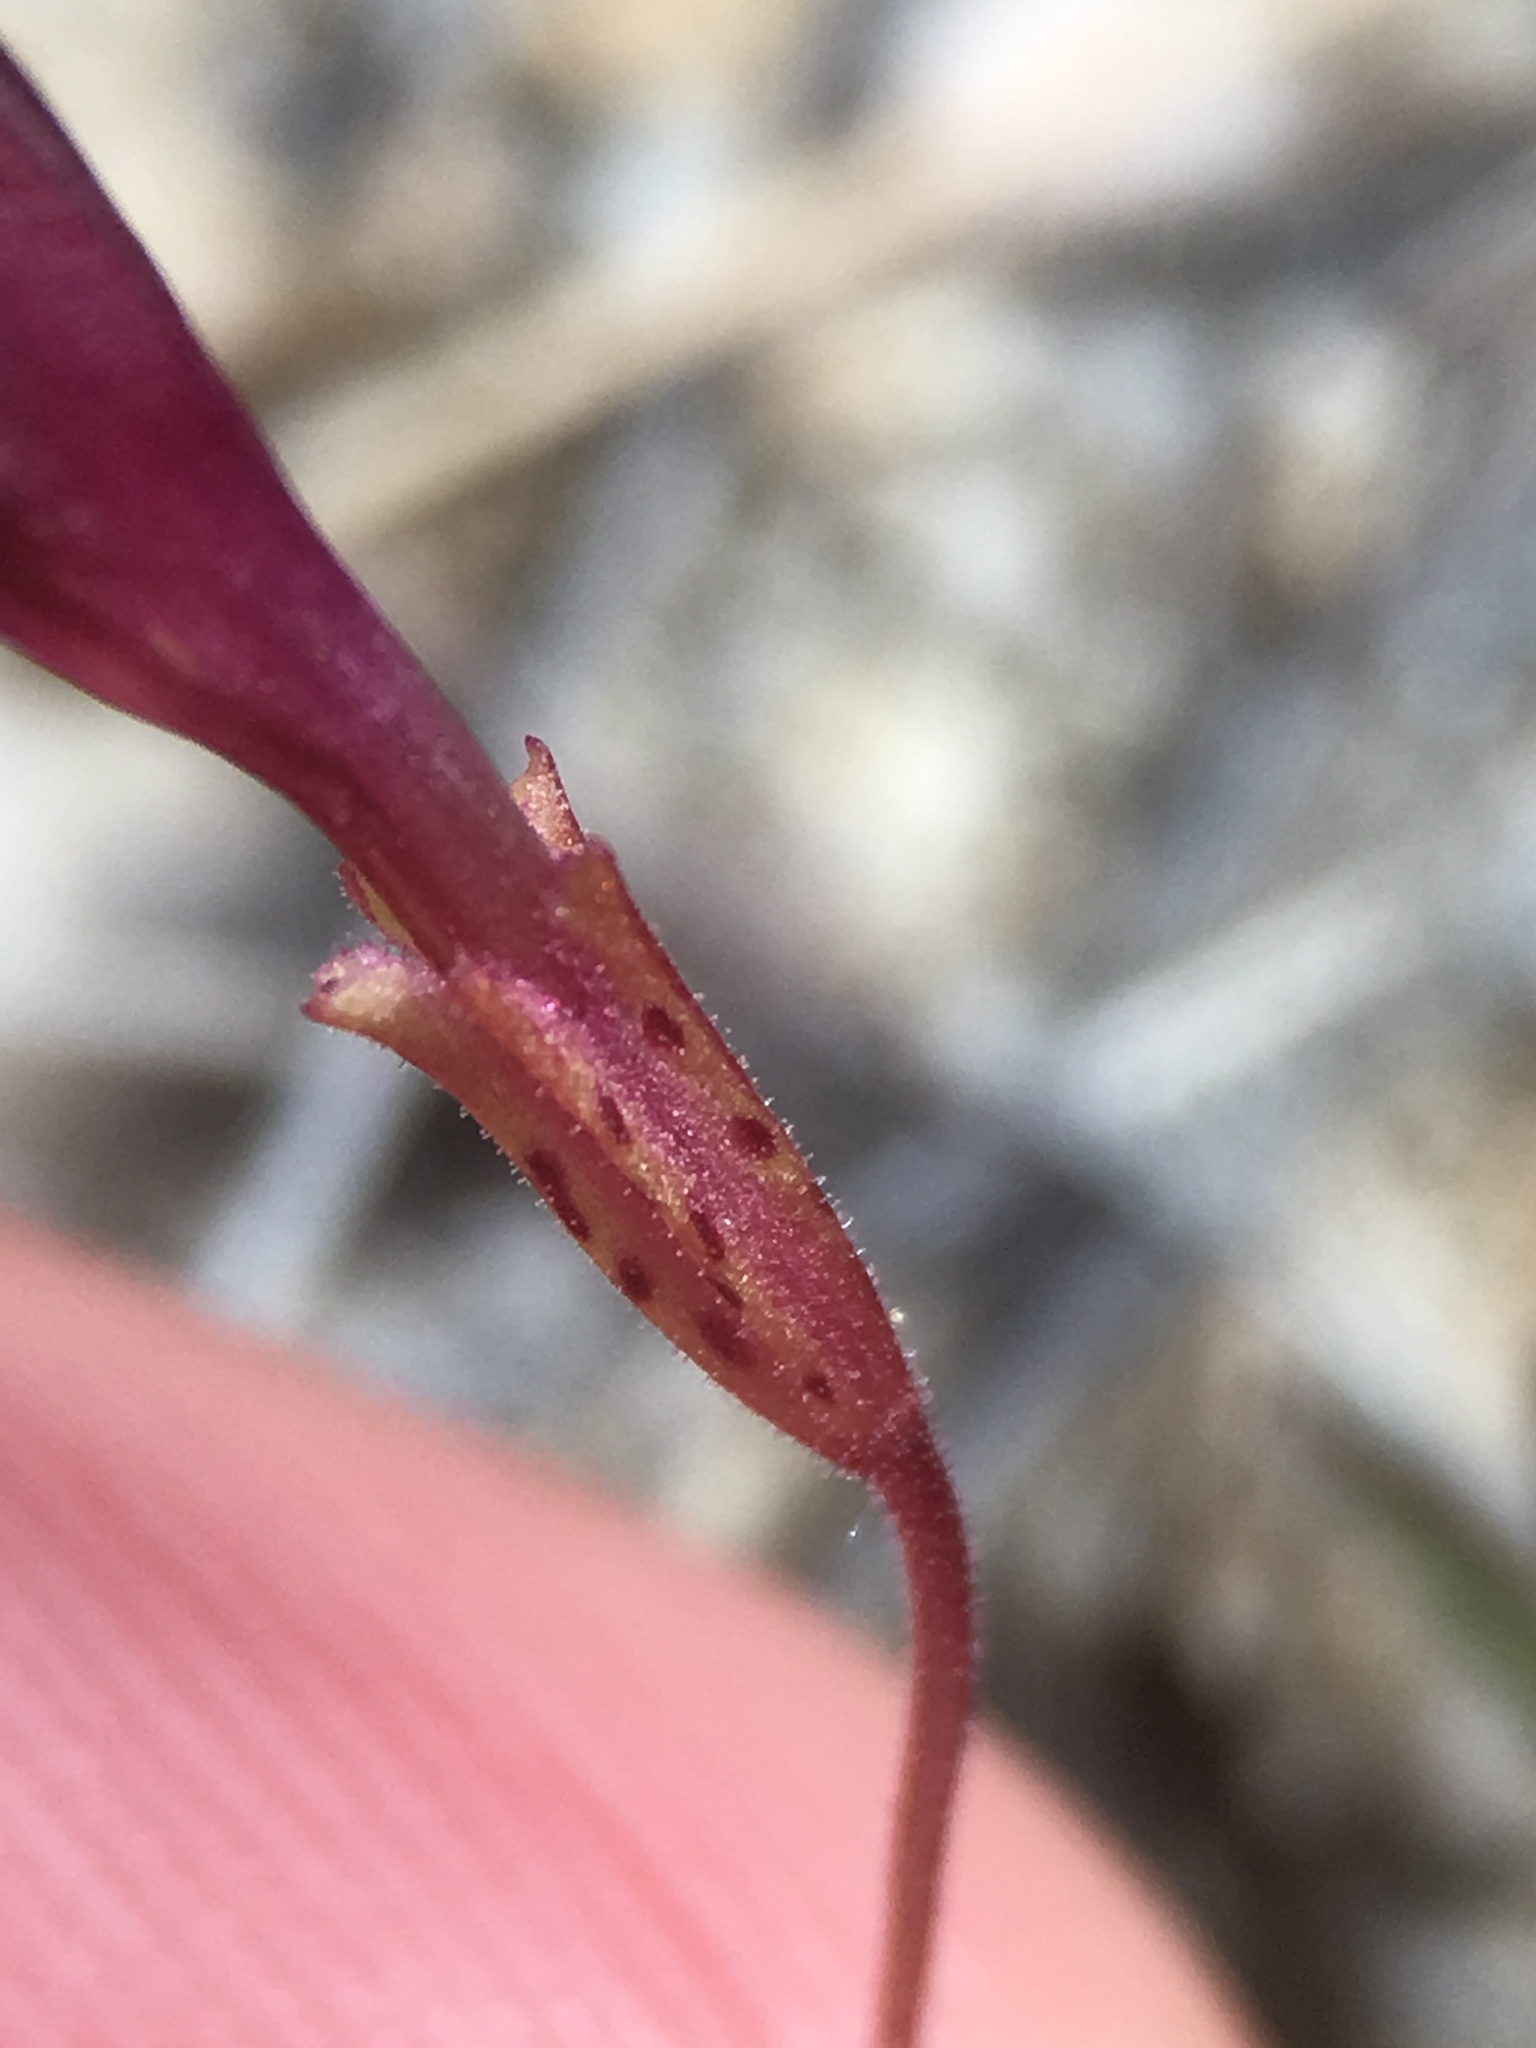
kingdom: Plantae
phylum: Tracheophyta
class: Magnoliopsida
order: Lamiales
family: Phrymaceae
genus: Erythranthe
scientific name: Erythranthe palmeri
